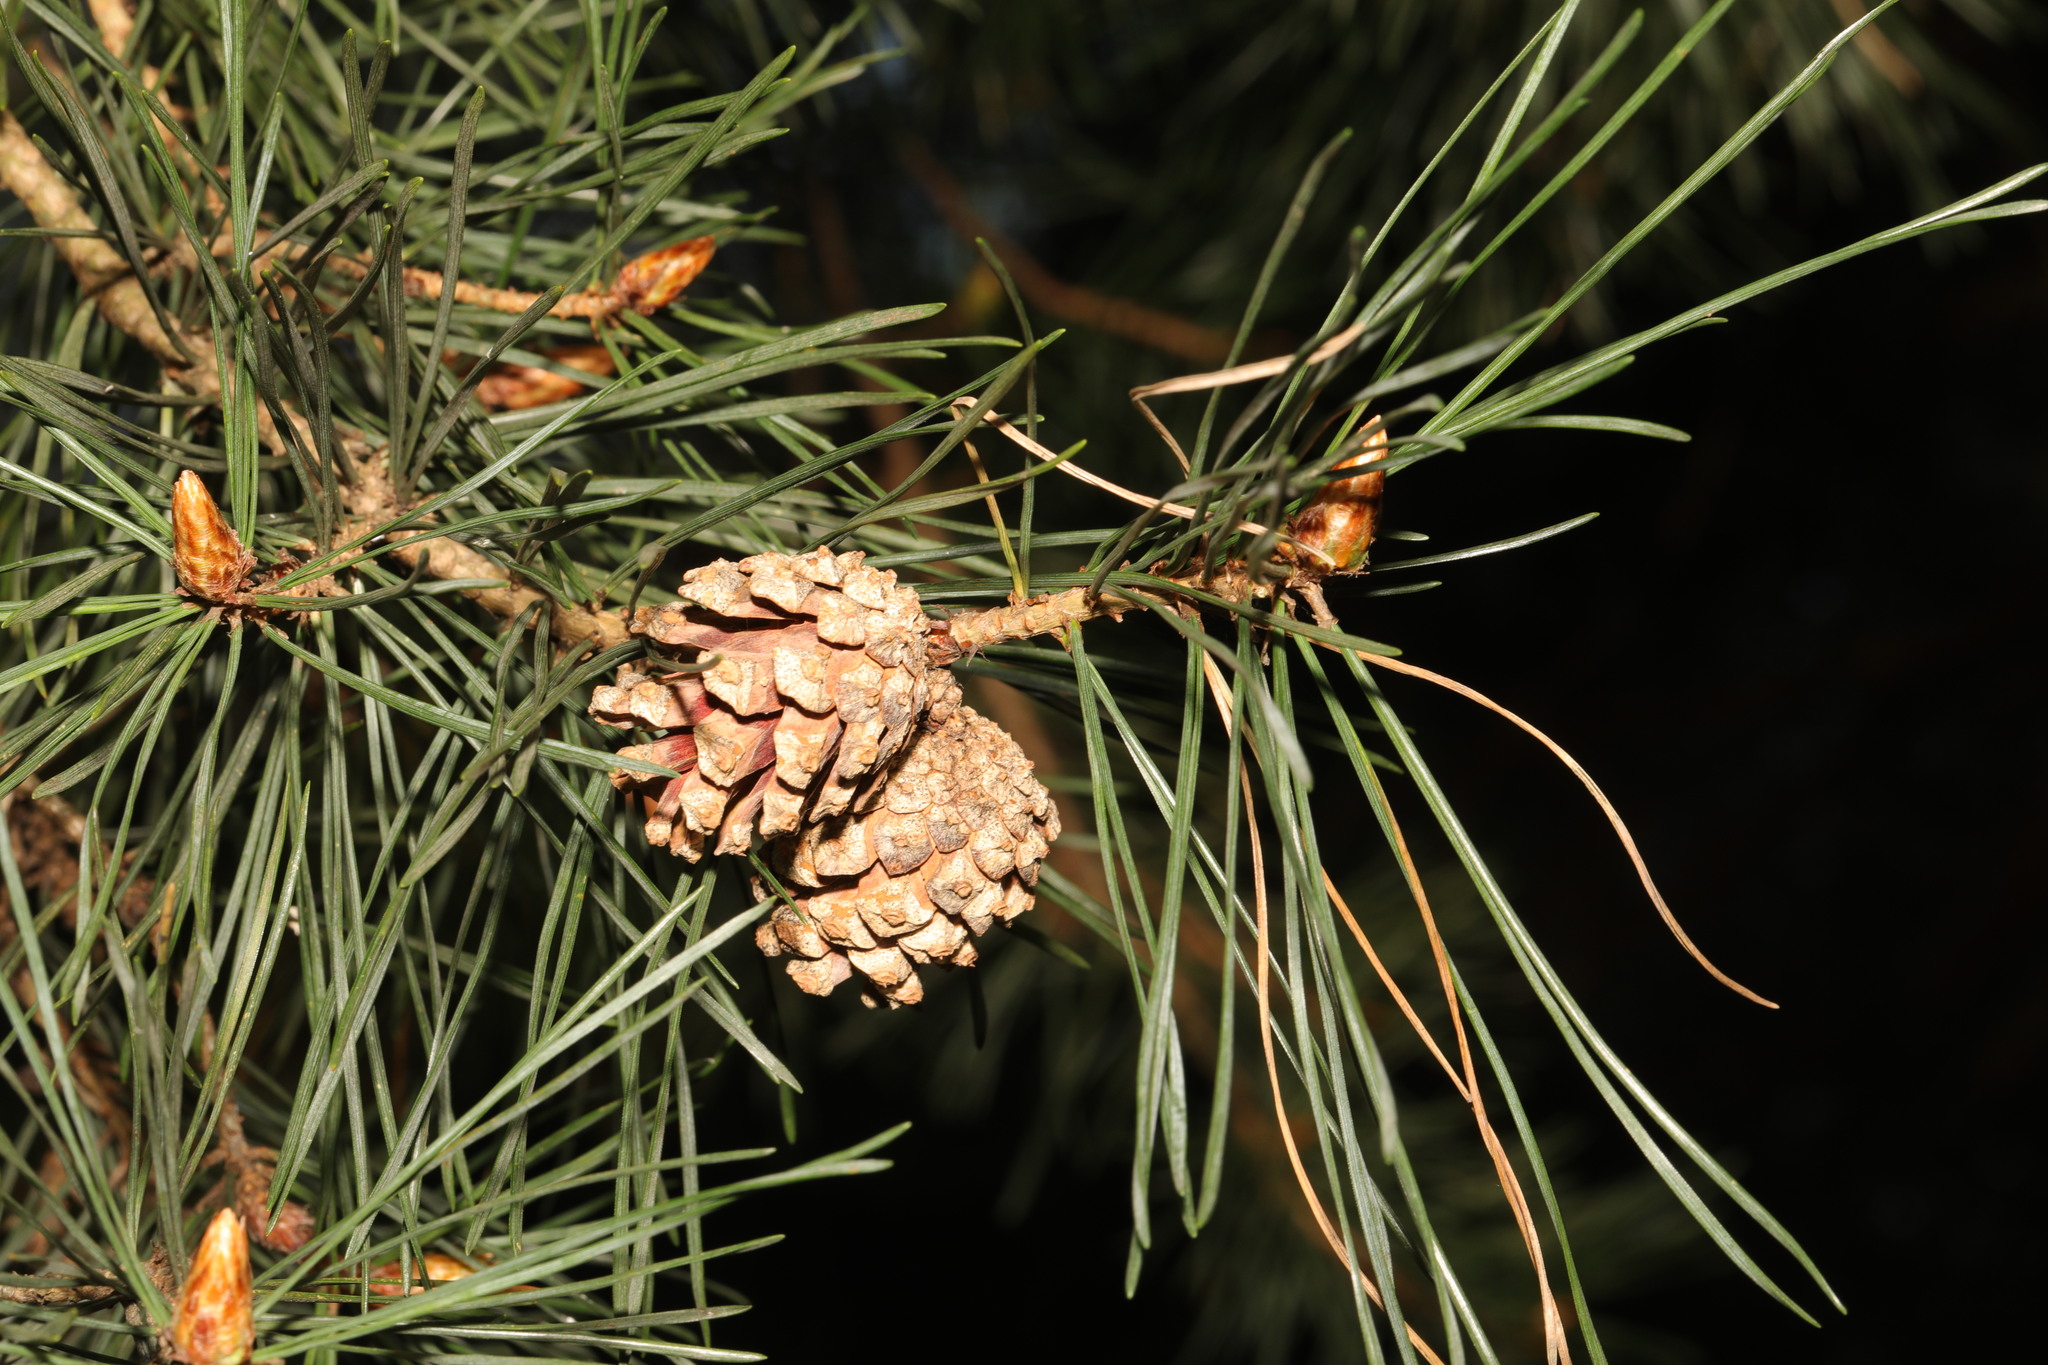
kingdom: Plantae
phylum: Tracheophyta
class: Pinopsida
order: Pinales
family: Pinaceae
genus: Pinus
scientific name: Pinus sylvestris
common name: Scots pine
